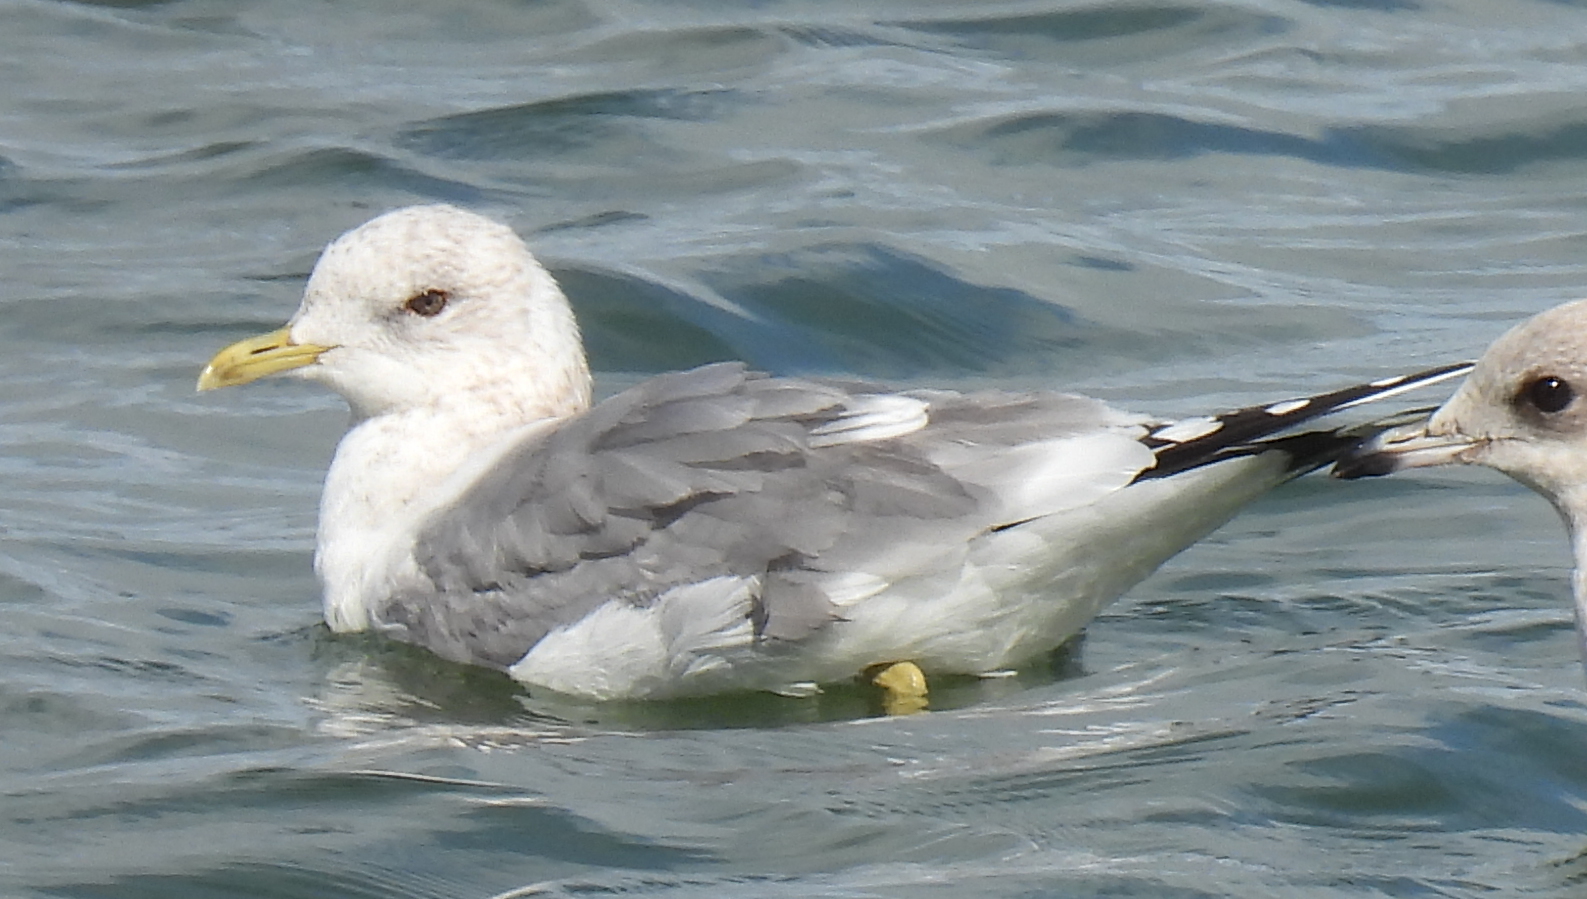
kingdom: Animalia
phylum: Chordata
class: Aves
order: Charadriiformes
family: Laridae
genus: Larus
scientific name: Larus brachyrhynchus
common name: Short-billed gull
